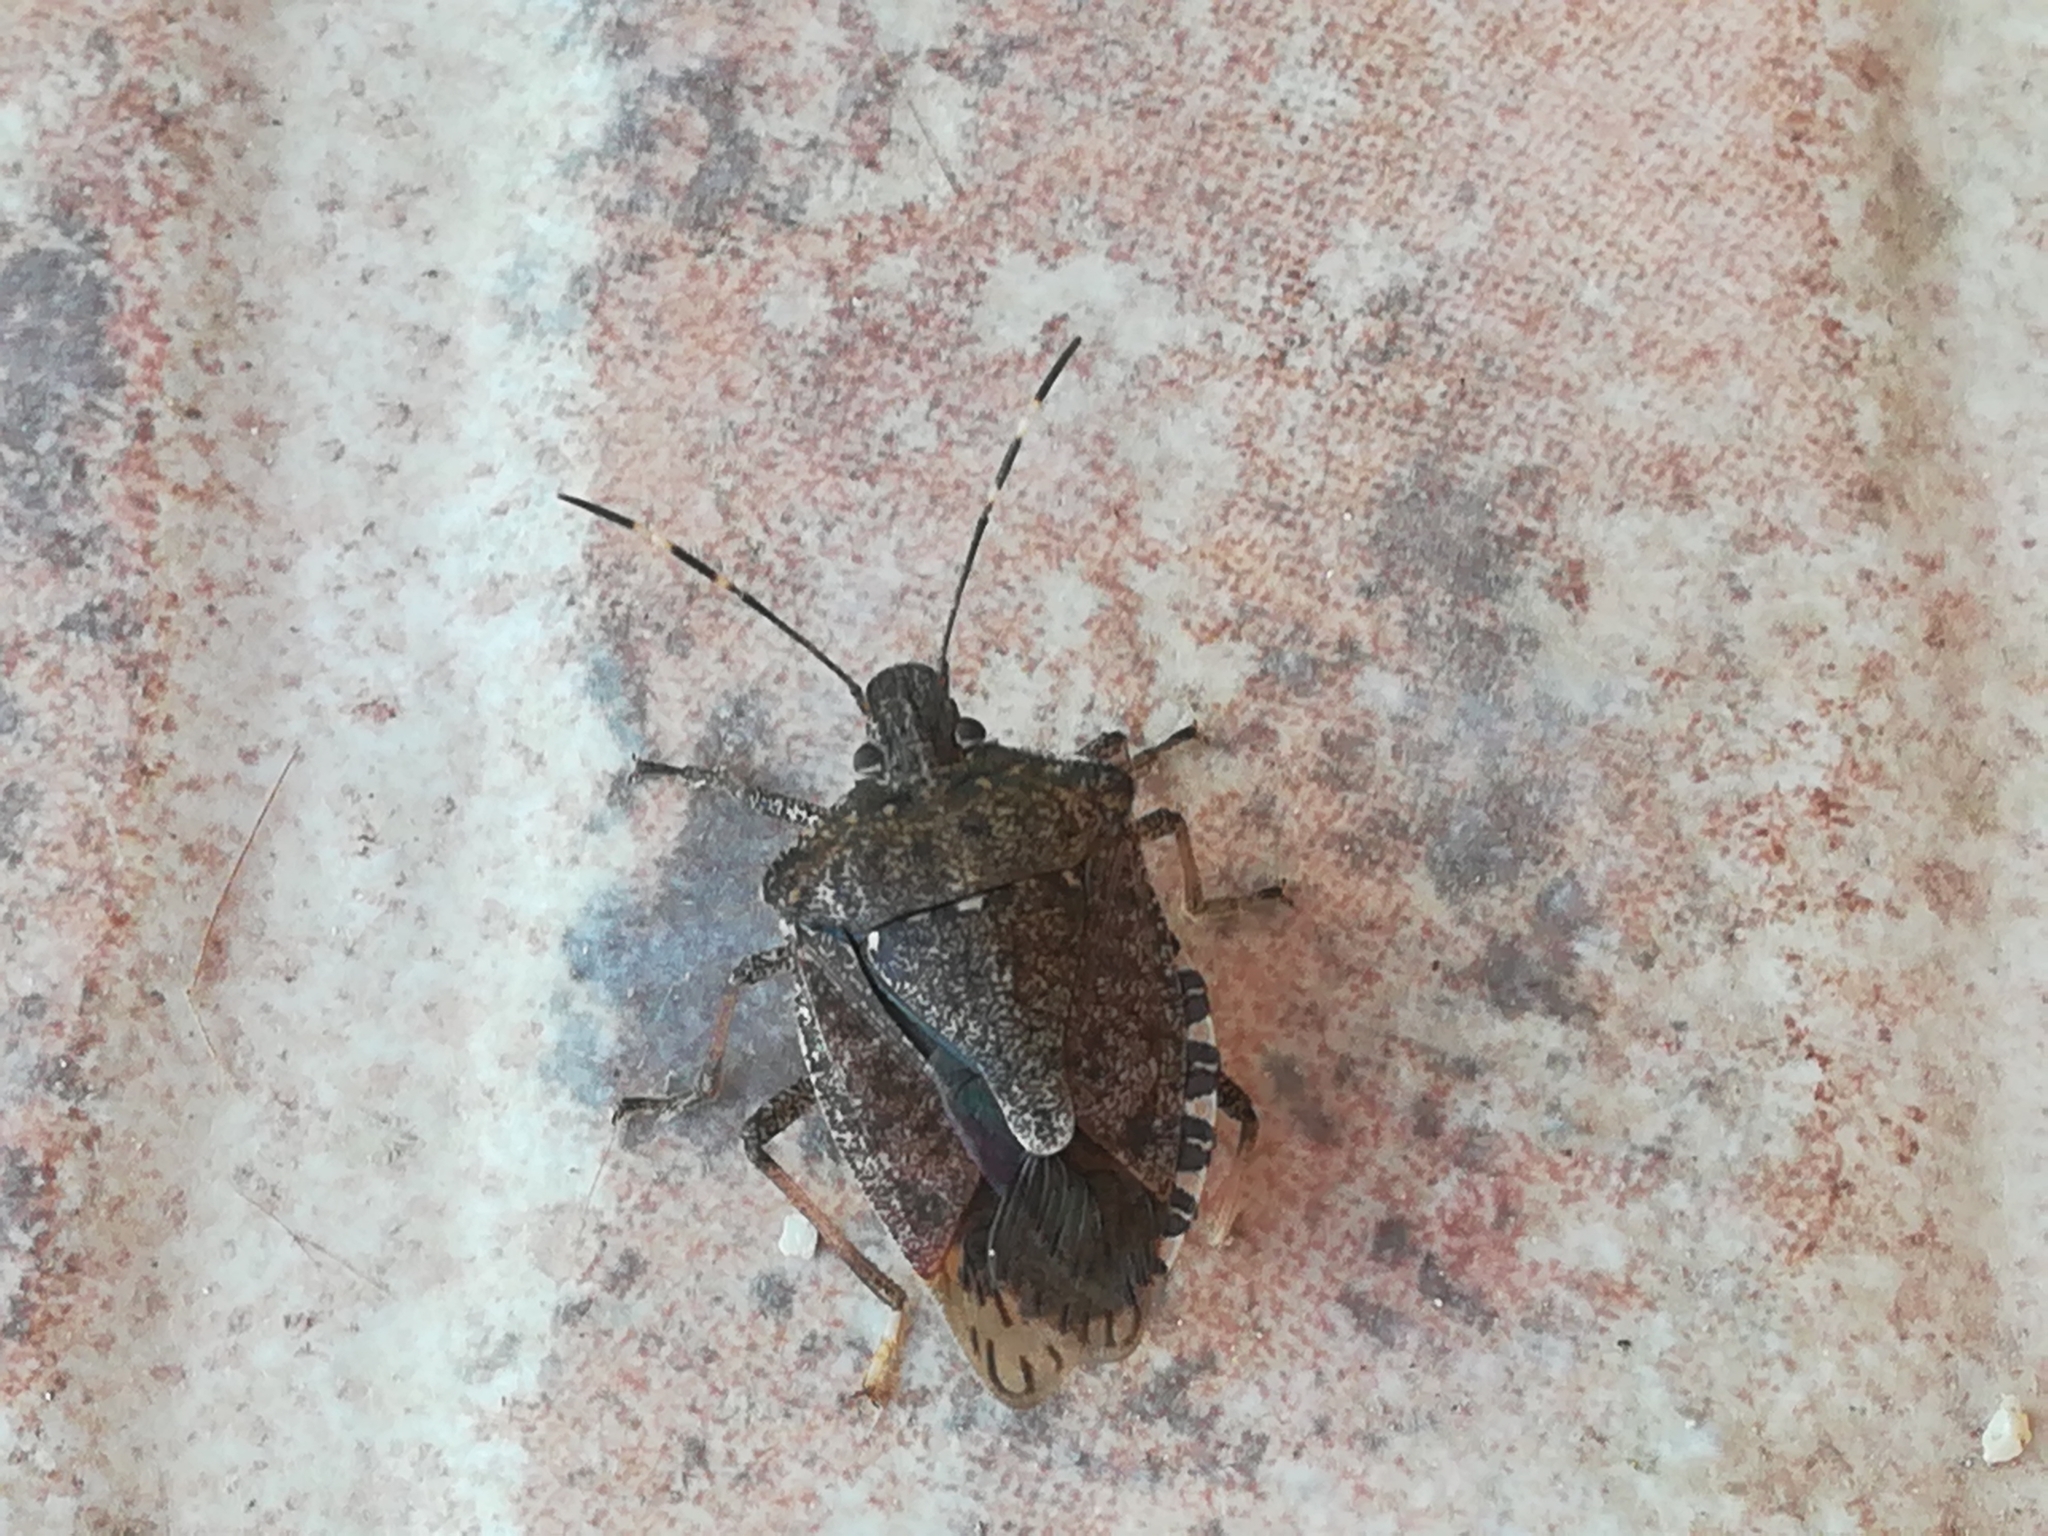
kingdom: Animalia
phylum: Arthropoda
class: Insecta
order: Hemiptera
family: Pentatomidae
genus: Halyomorpha
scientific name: Halyomorpha halys
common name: Brown marmorated stink bug
